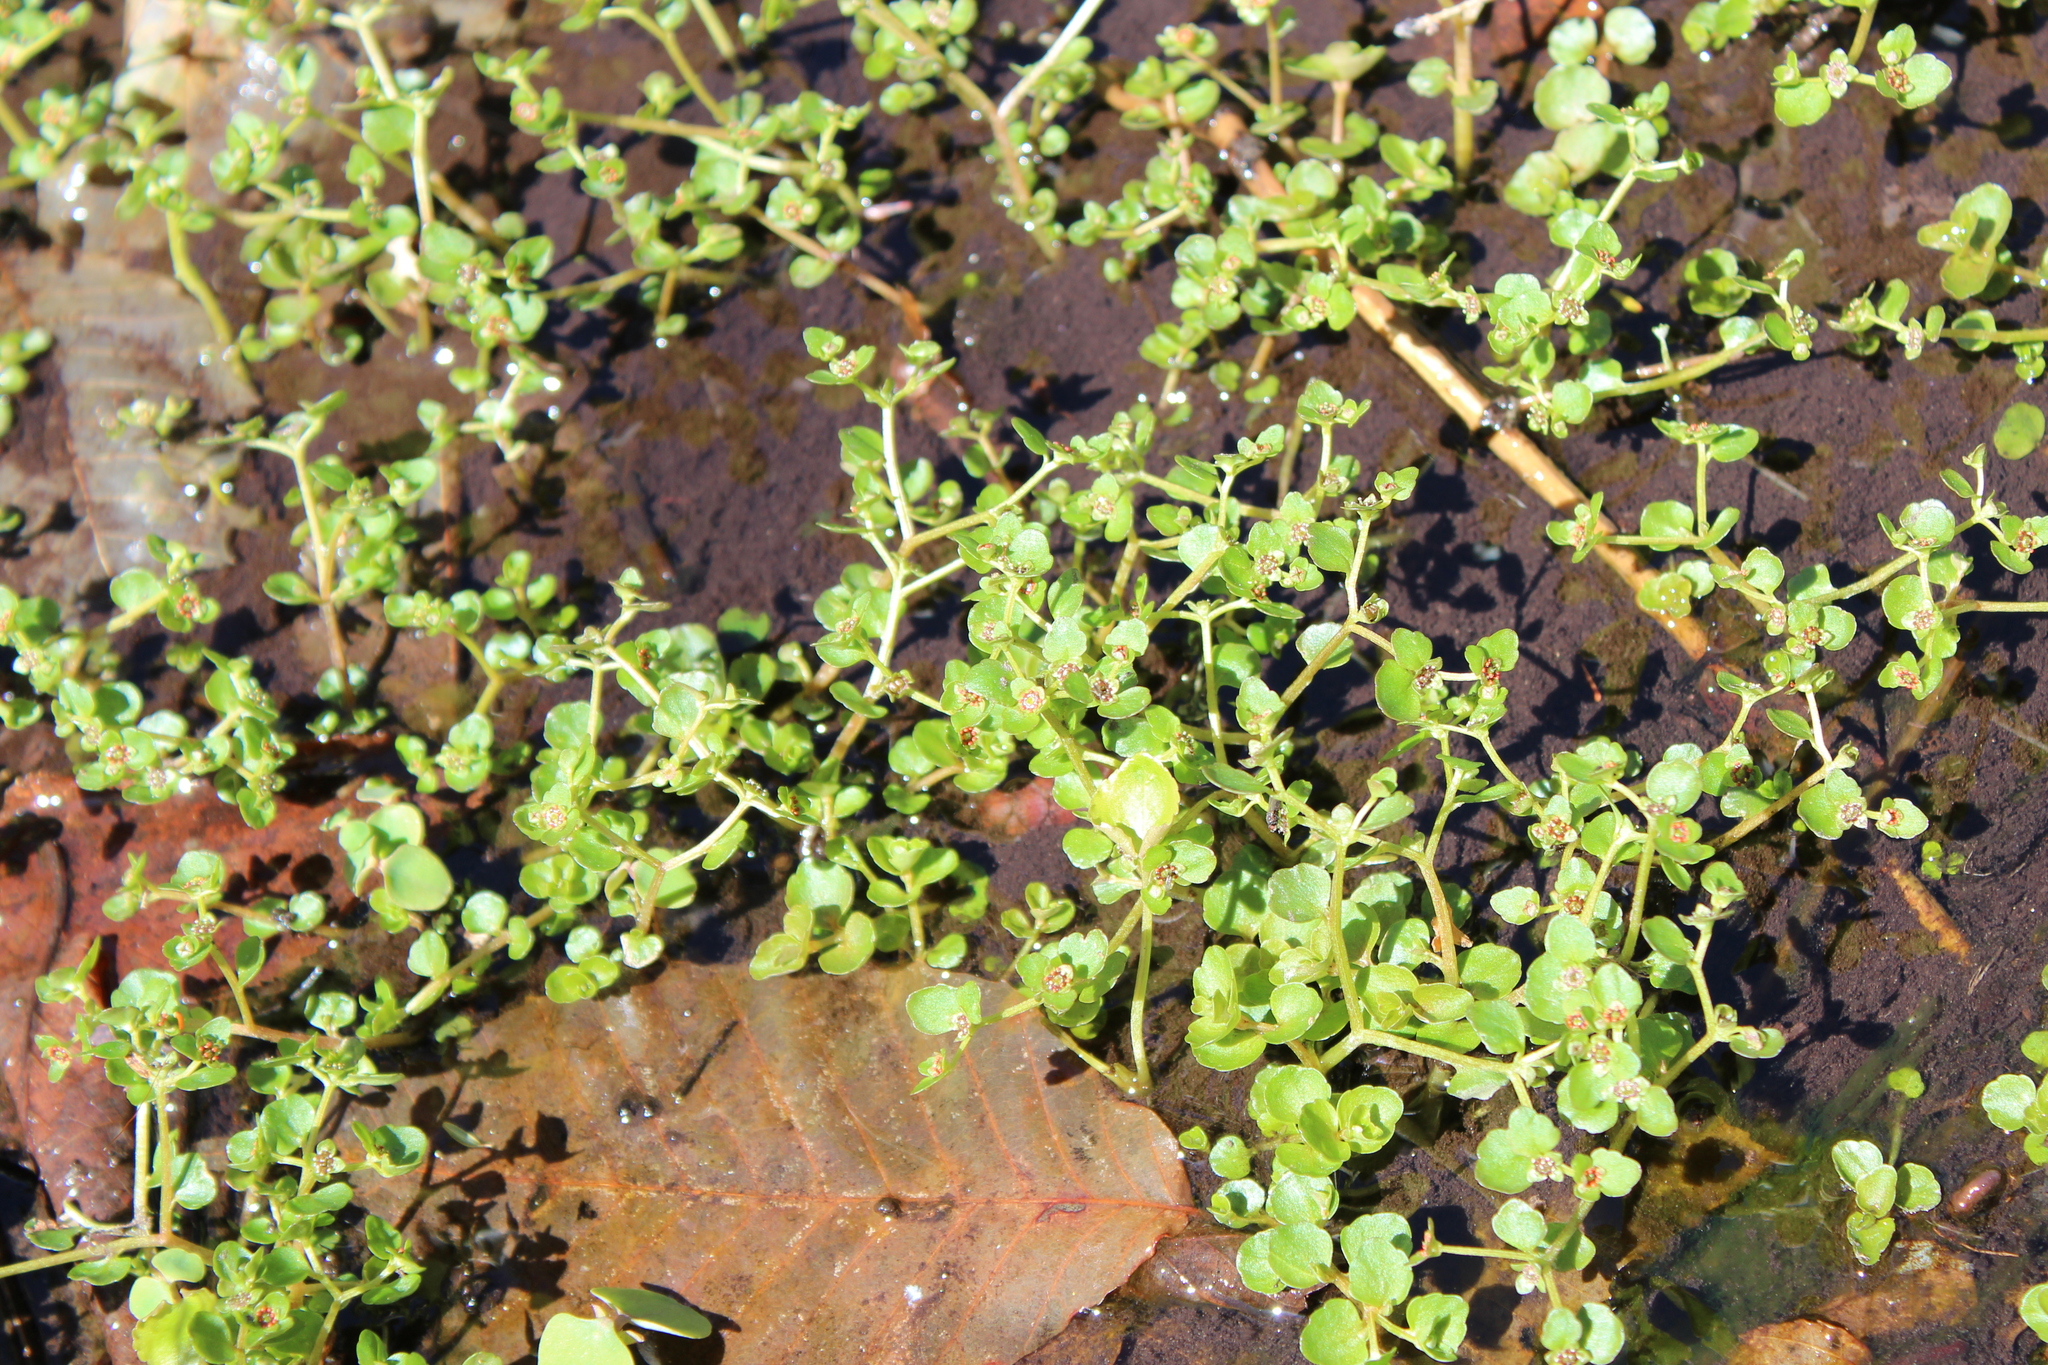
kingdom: Plantae
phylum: Tracheophyta
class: Magnoliopsida
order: Saxifragales
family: Saxifragaceae
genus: Chrysosplenium
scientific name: Chrysosplenium americanum
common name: American golden-saxifrage
